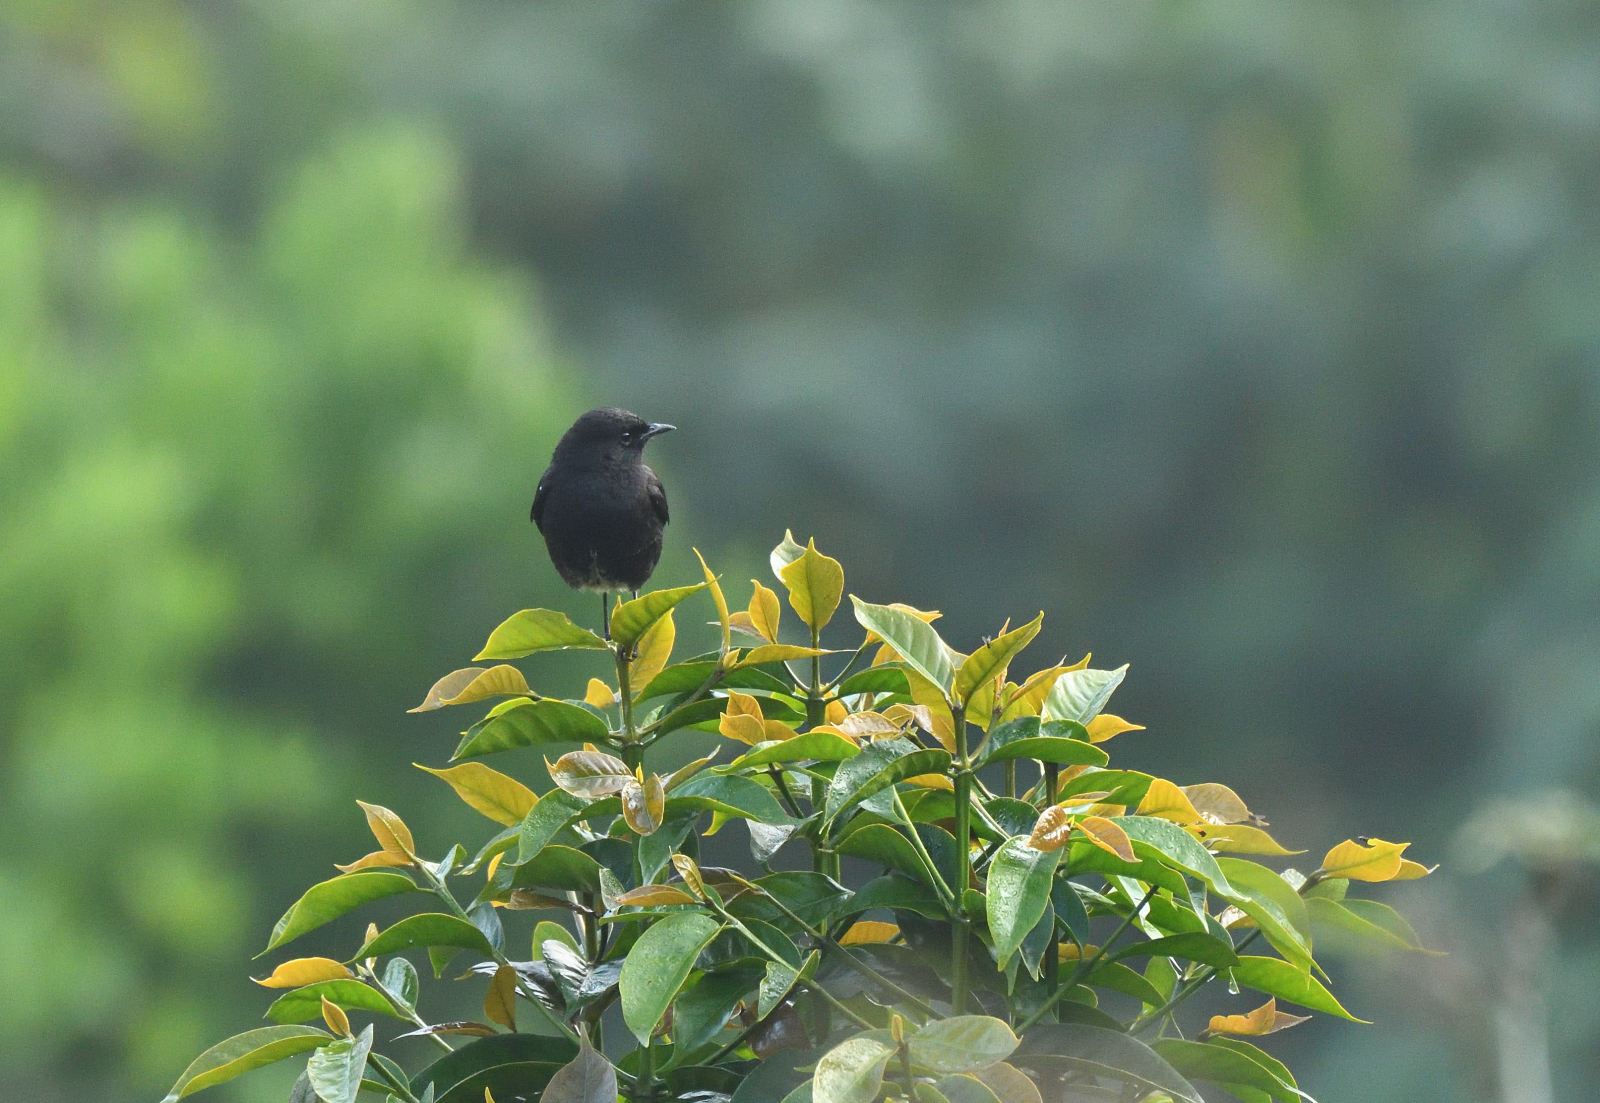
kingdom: Animalia
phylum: Chordata
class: Aves
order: Passeriformes
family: Muscicapidae
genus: Saxicola
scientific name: Saxicola caprata
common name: Pied bush chat
